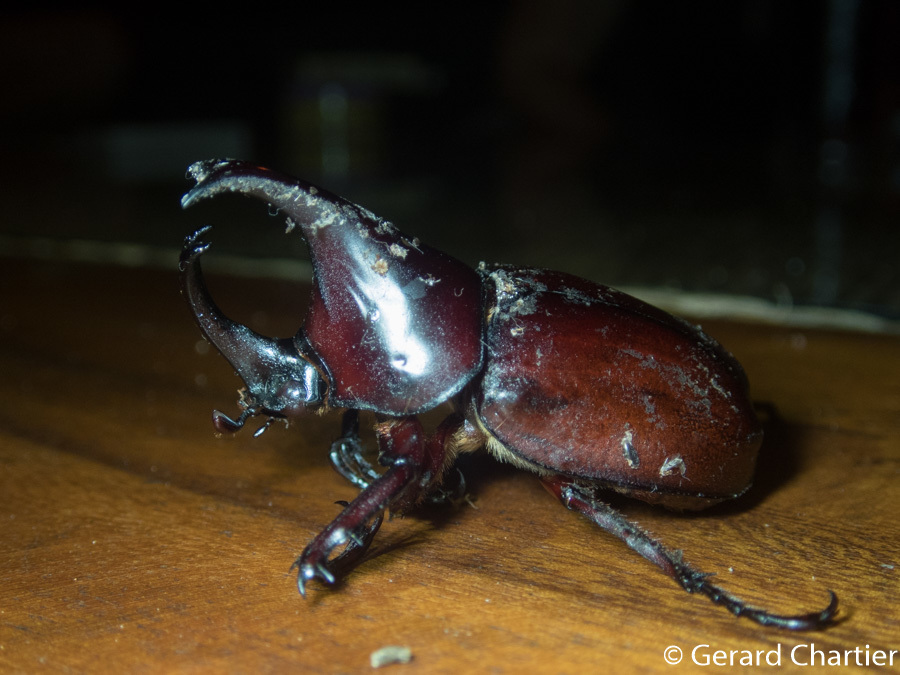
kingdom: Animalia
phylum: Arthropoda
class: Insecta
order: Coleoptera
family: Scarabaeidae
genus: Xylotrupes
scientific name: Xylotrupes socrates
